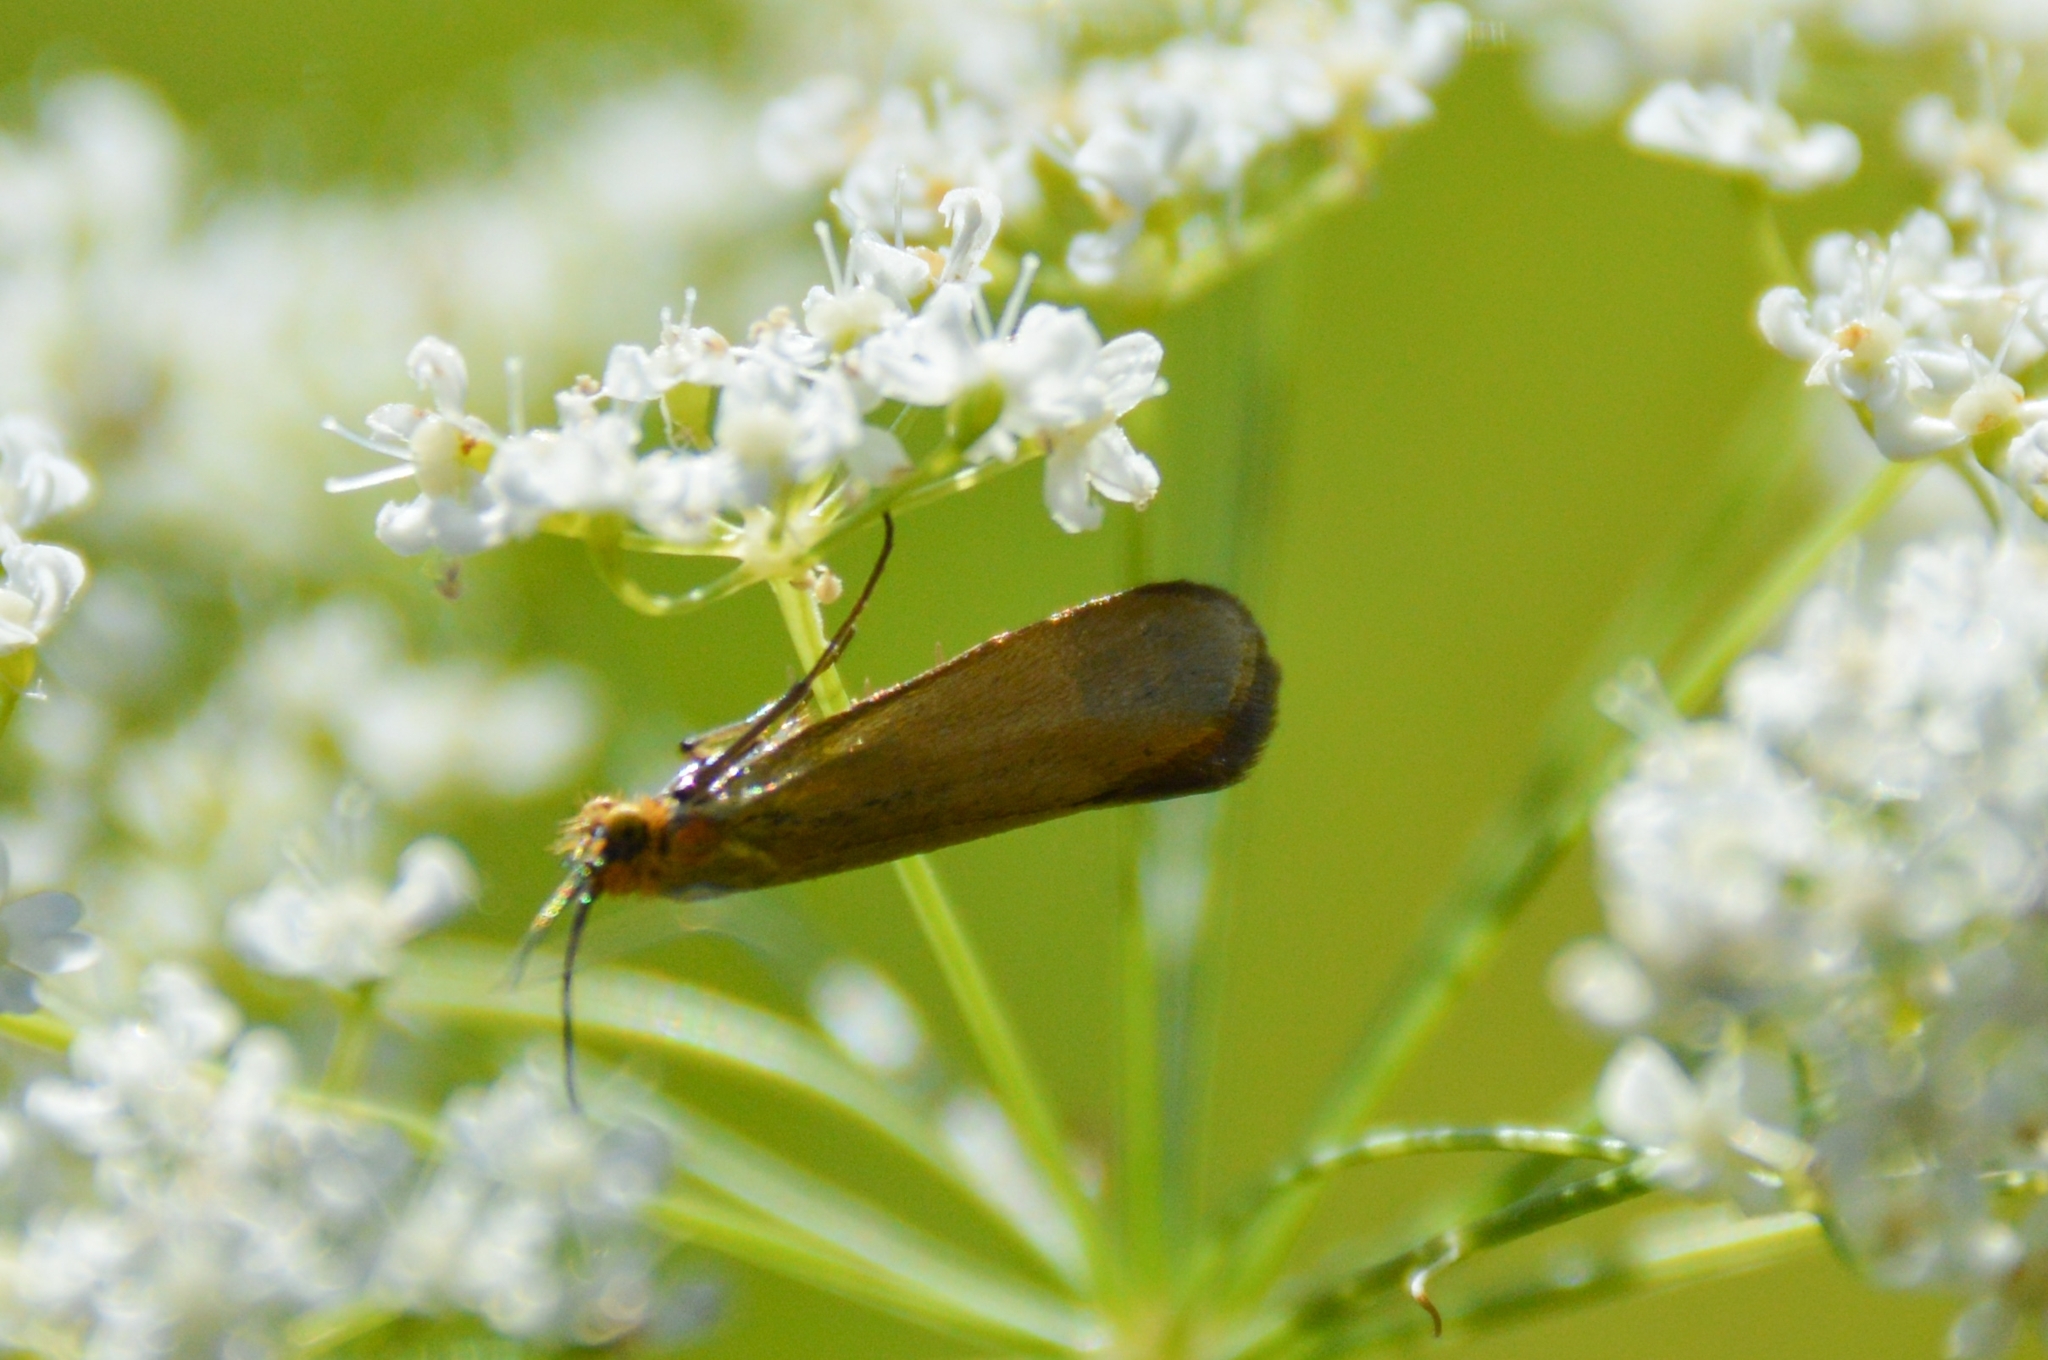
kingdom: Animalia
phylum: Arthropoda
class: Insecta
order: Lepidoptera
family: Adelidae
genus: Adela
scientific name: Adela violella
